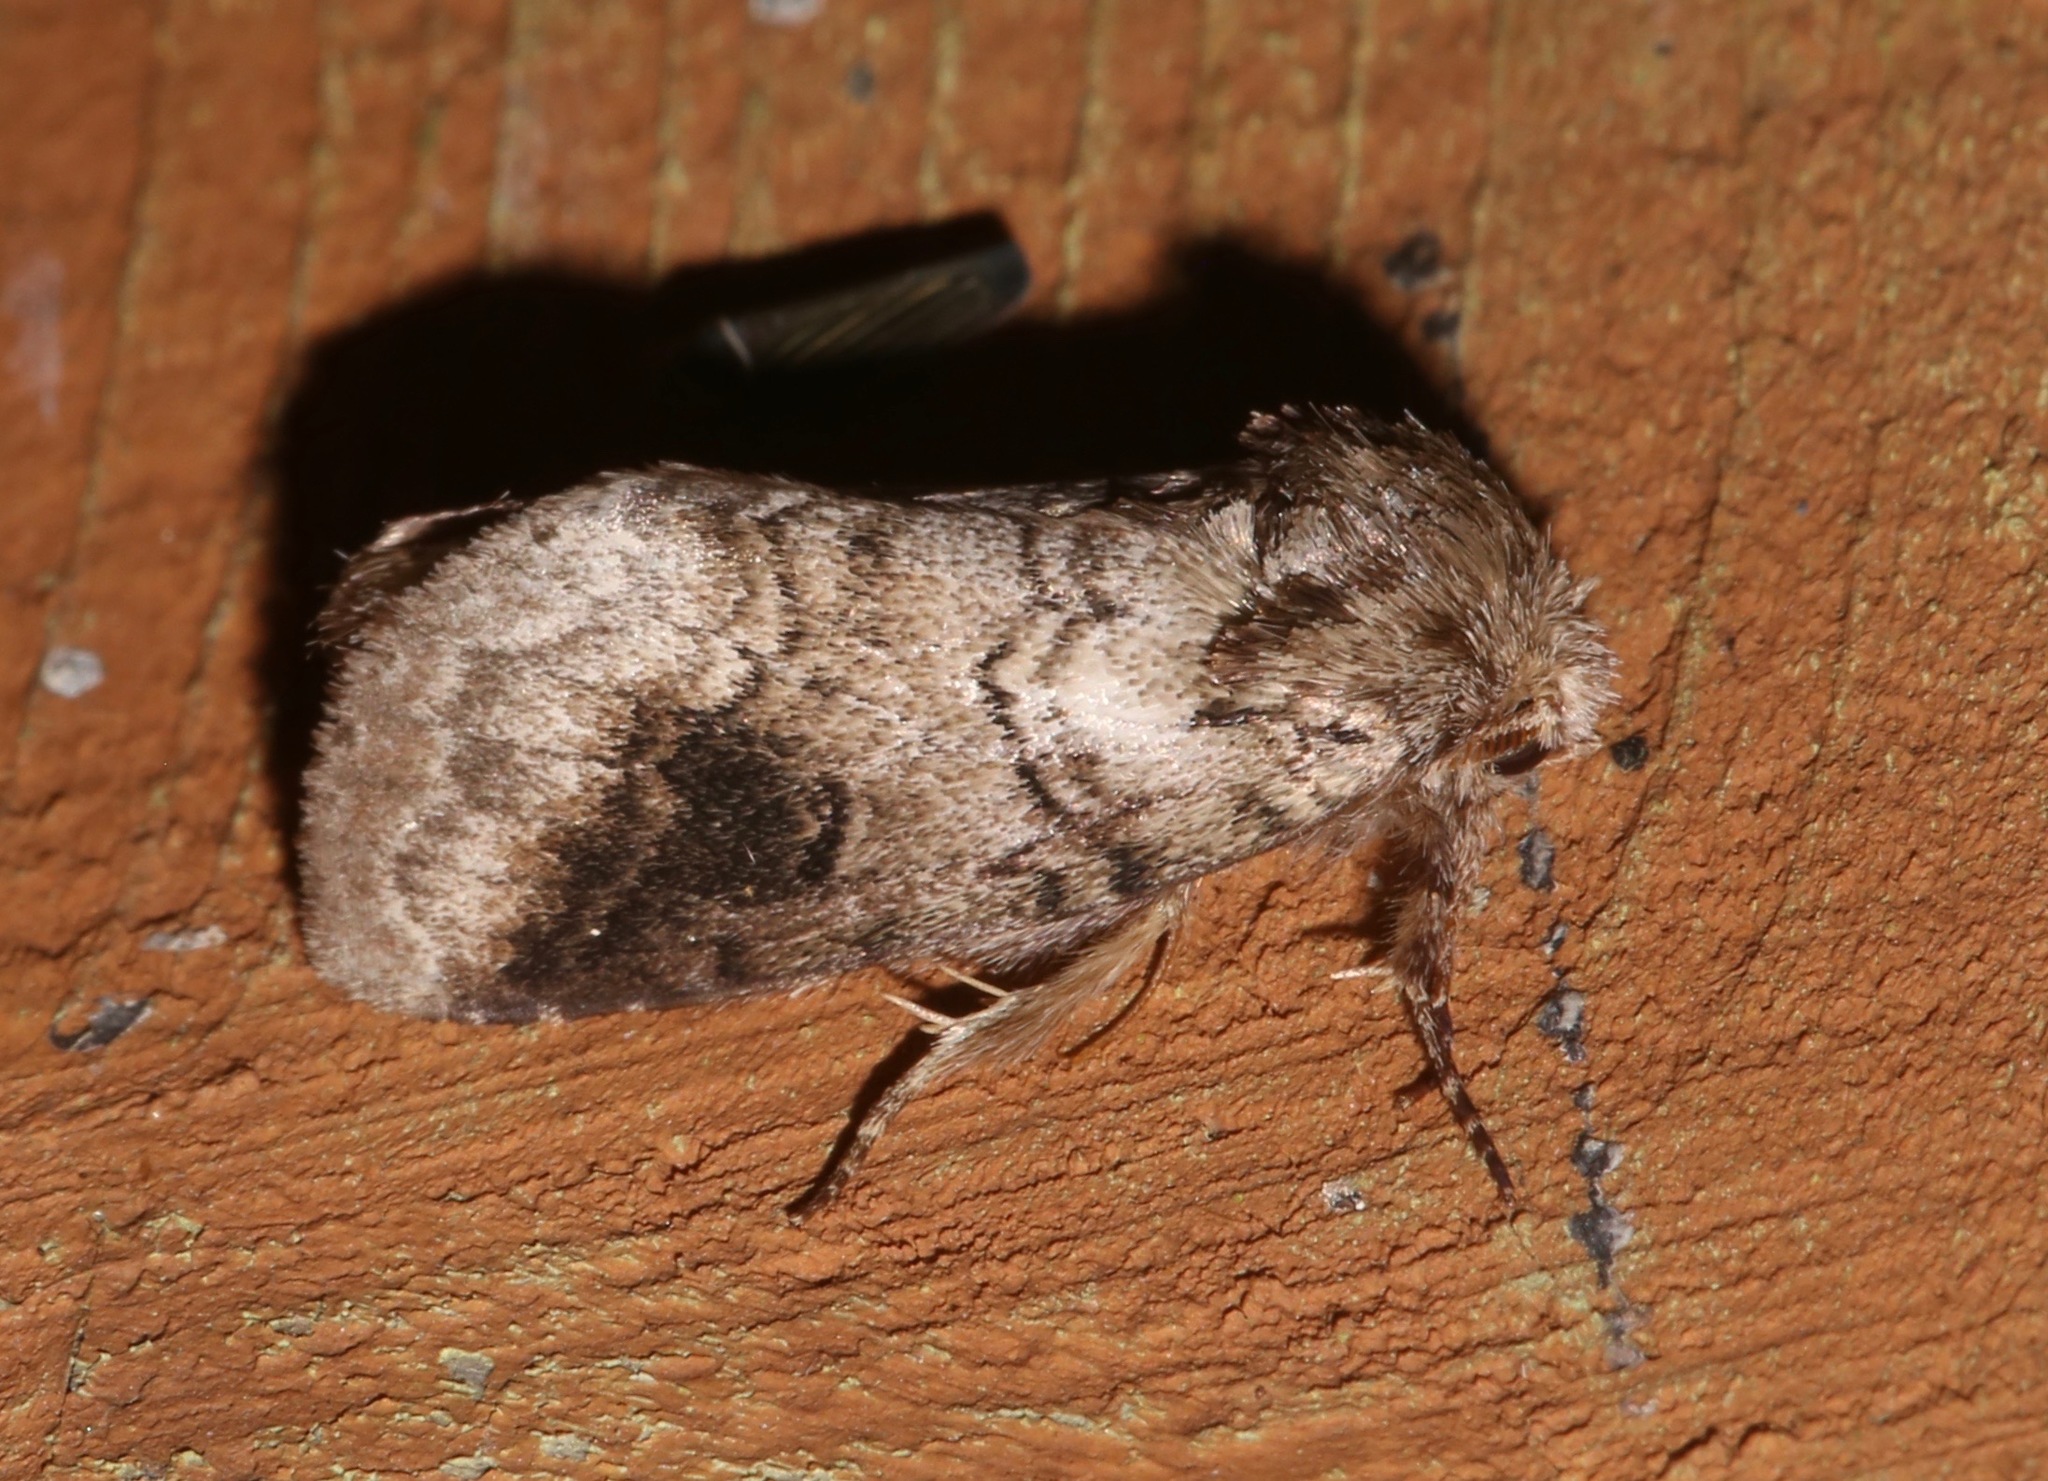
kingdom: Animalia
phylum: Arthropoda
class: Insecta
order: Lepidoptera
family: Notodontidae
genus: Lochmaeus
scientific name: Lochmaeus bilineata
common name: Double-lined prominent
